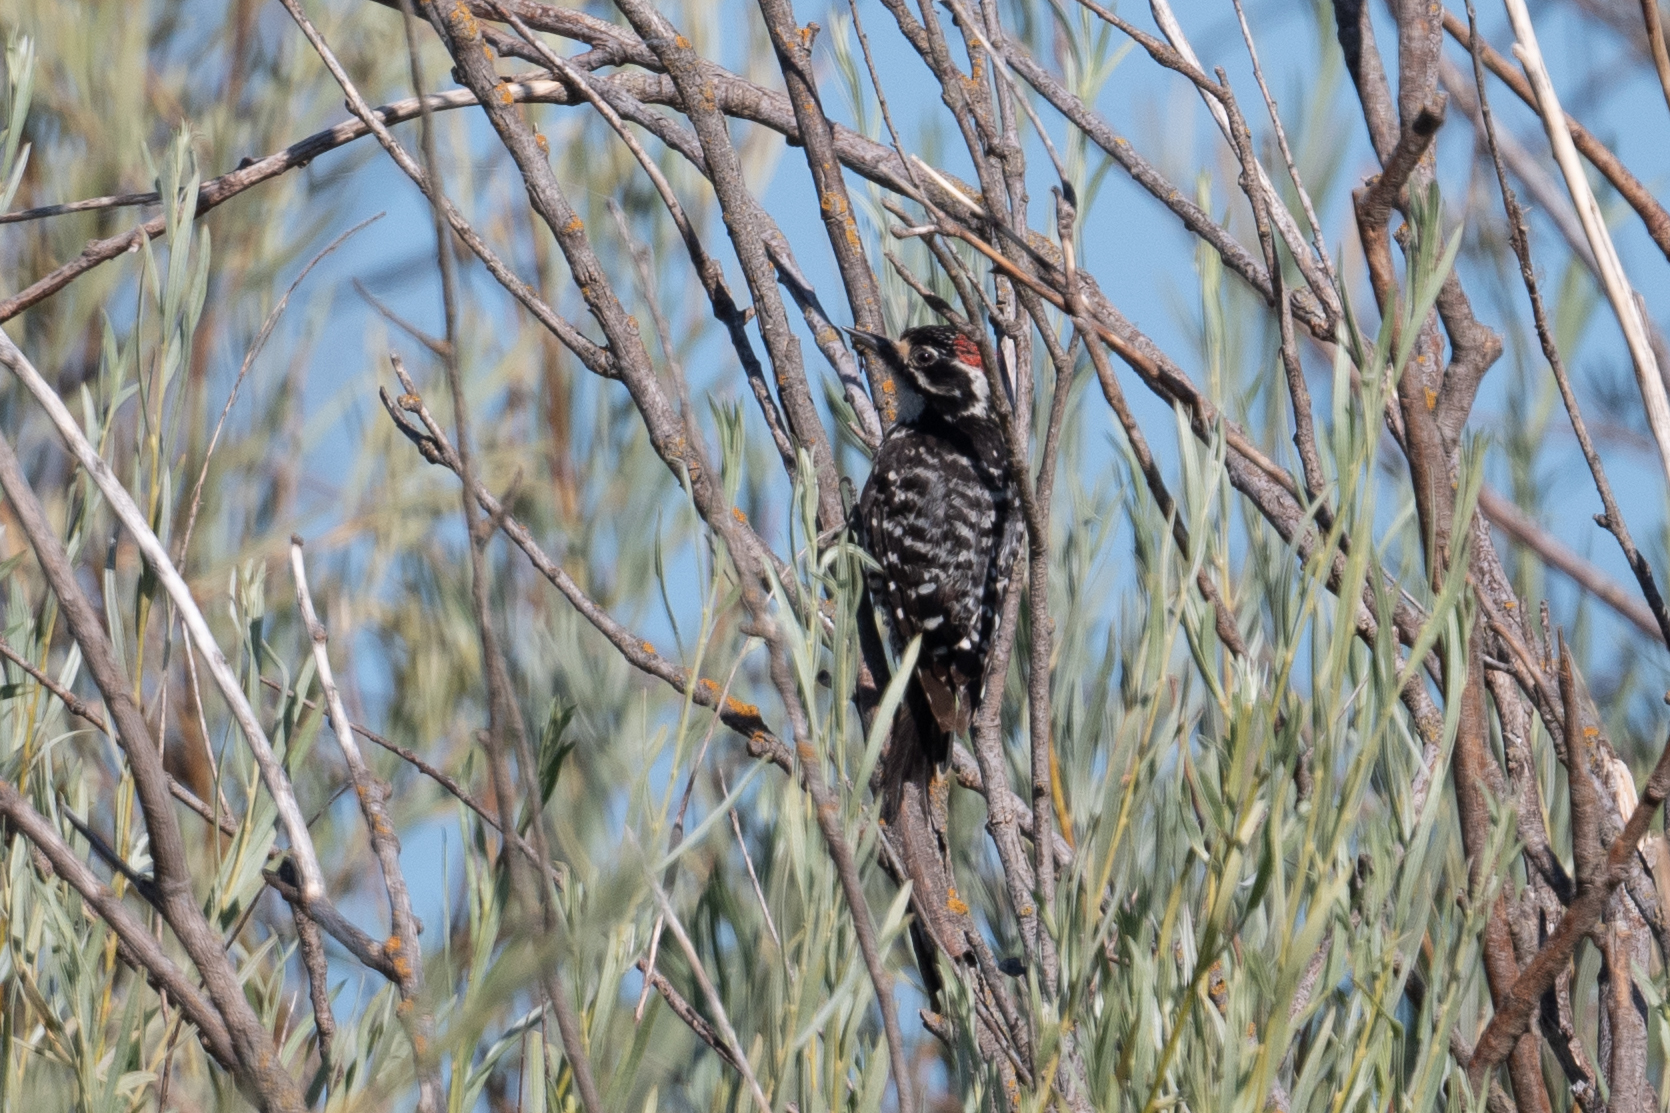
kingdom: Animalia
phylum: Chordata
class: Aves
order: Piciformes
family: Picidae
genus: Dryobates
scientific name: Dryobates nuttallii
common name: Nuttall's woodpecker
